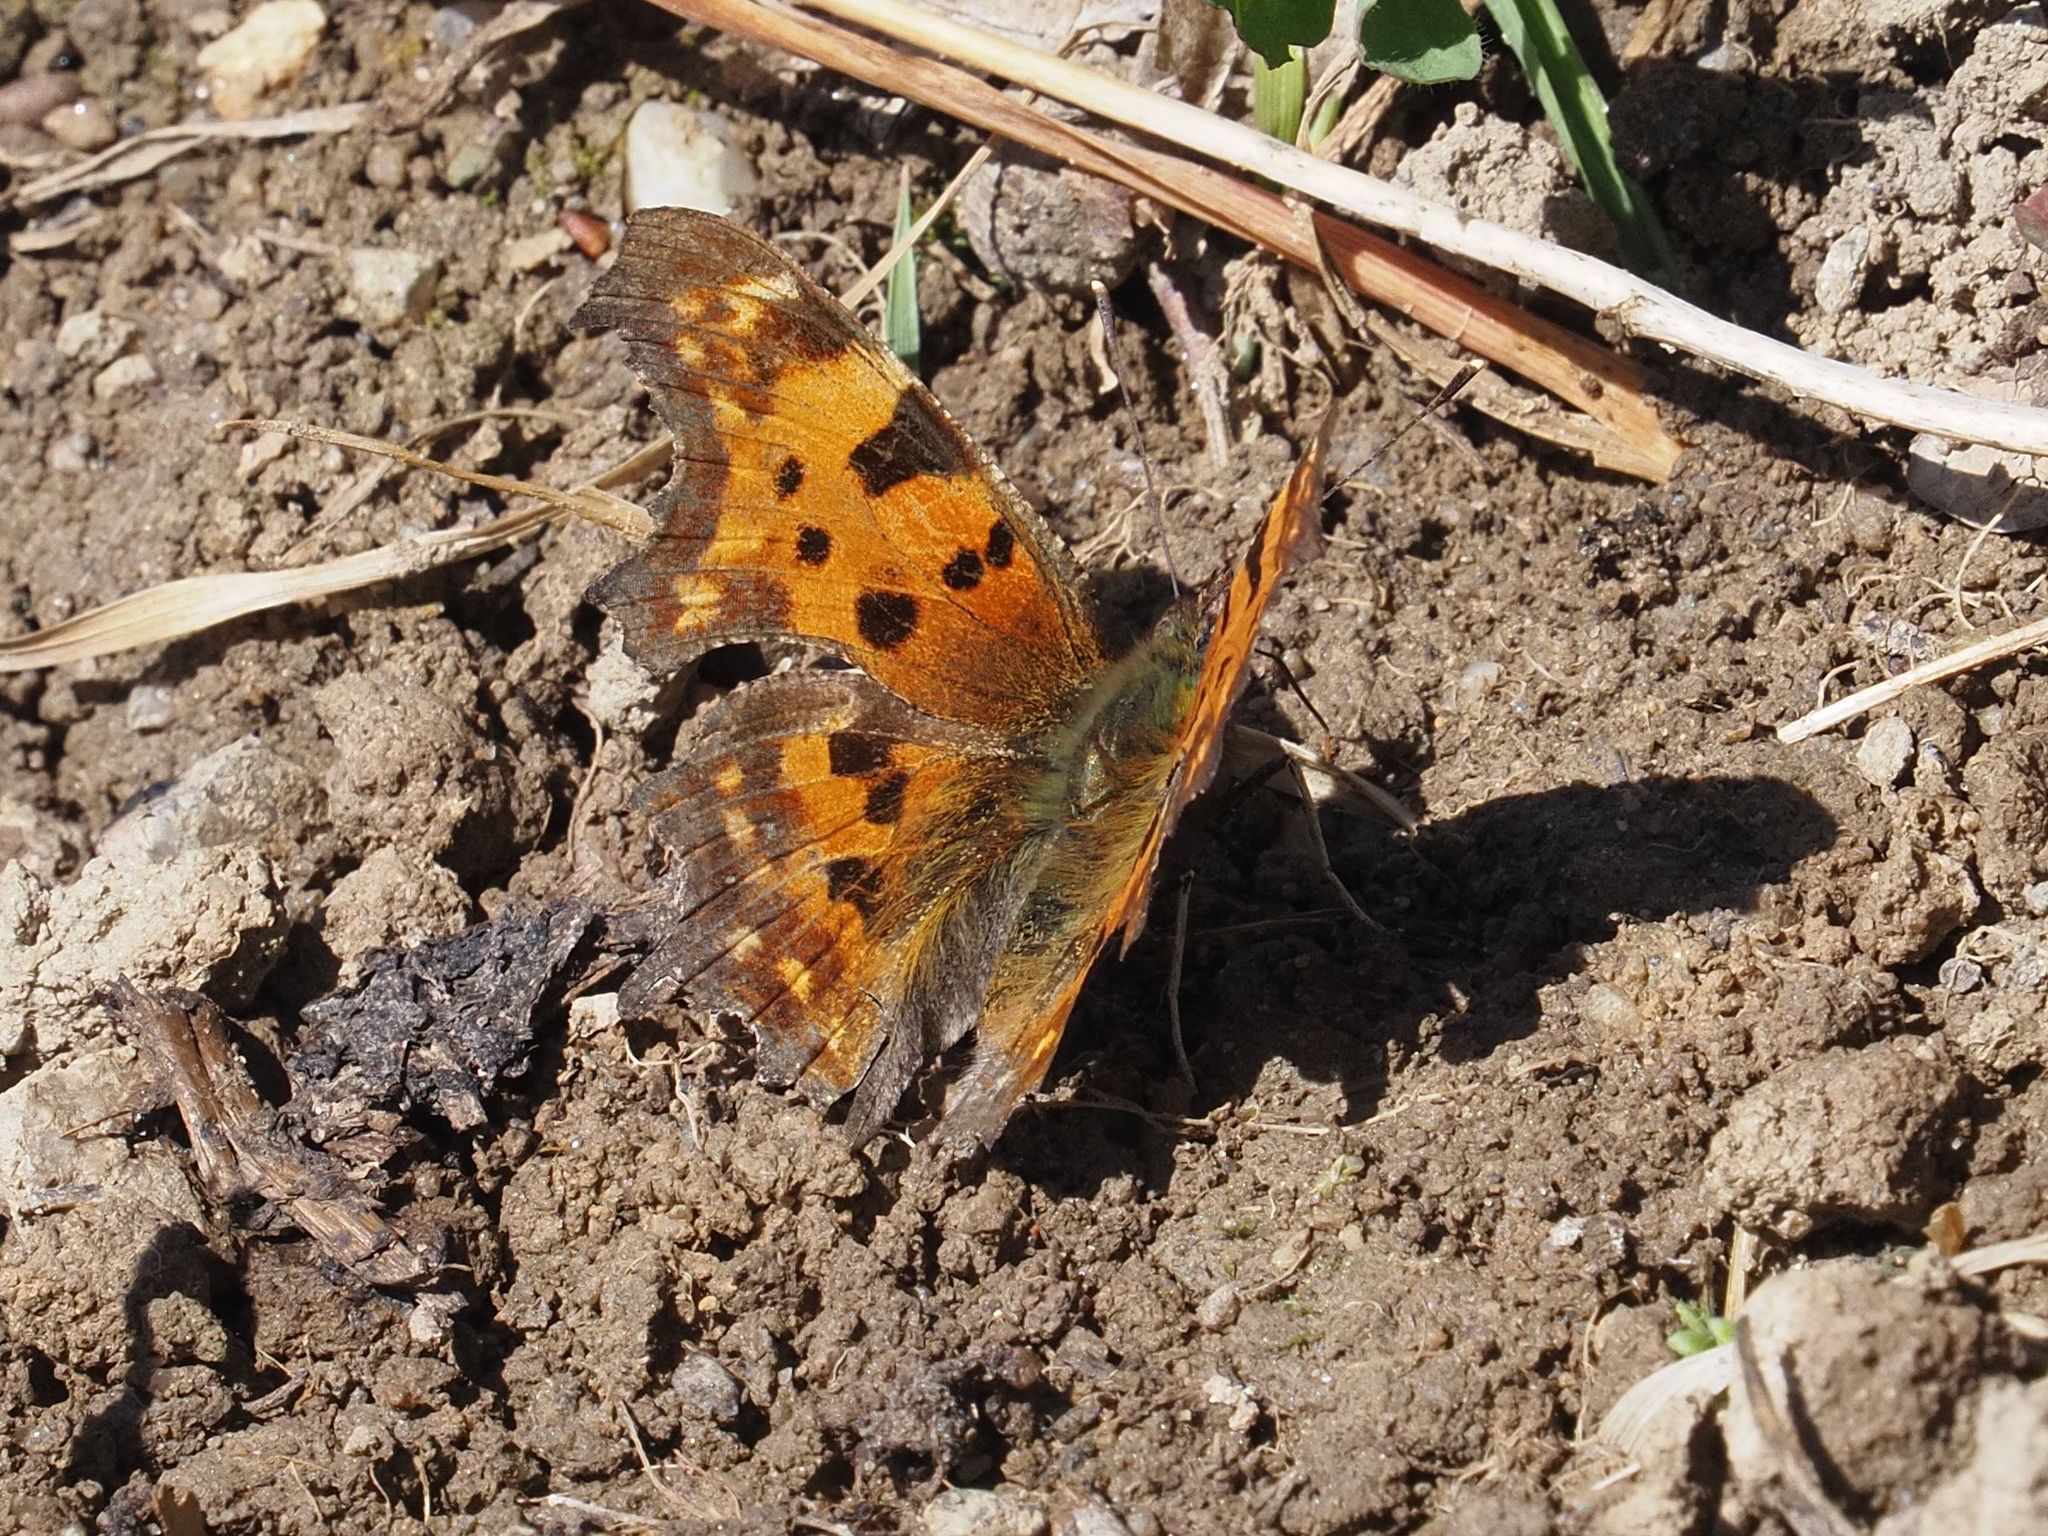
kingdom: Animalia
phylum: Arthropoda
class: Insecta
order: Lepidoptera
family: Nymphalidae
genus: Polygonia
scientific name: Polygonia c-album
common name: Comma
